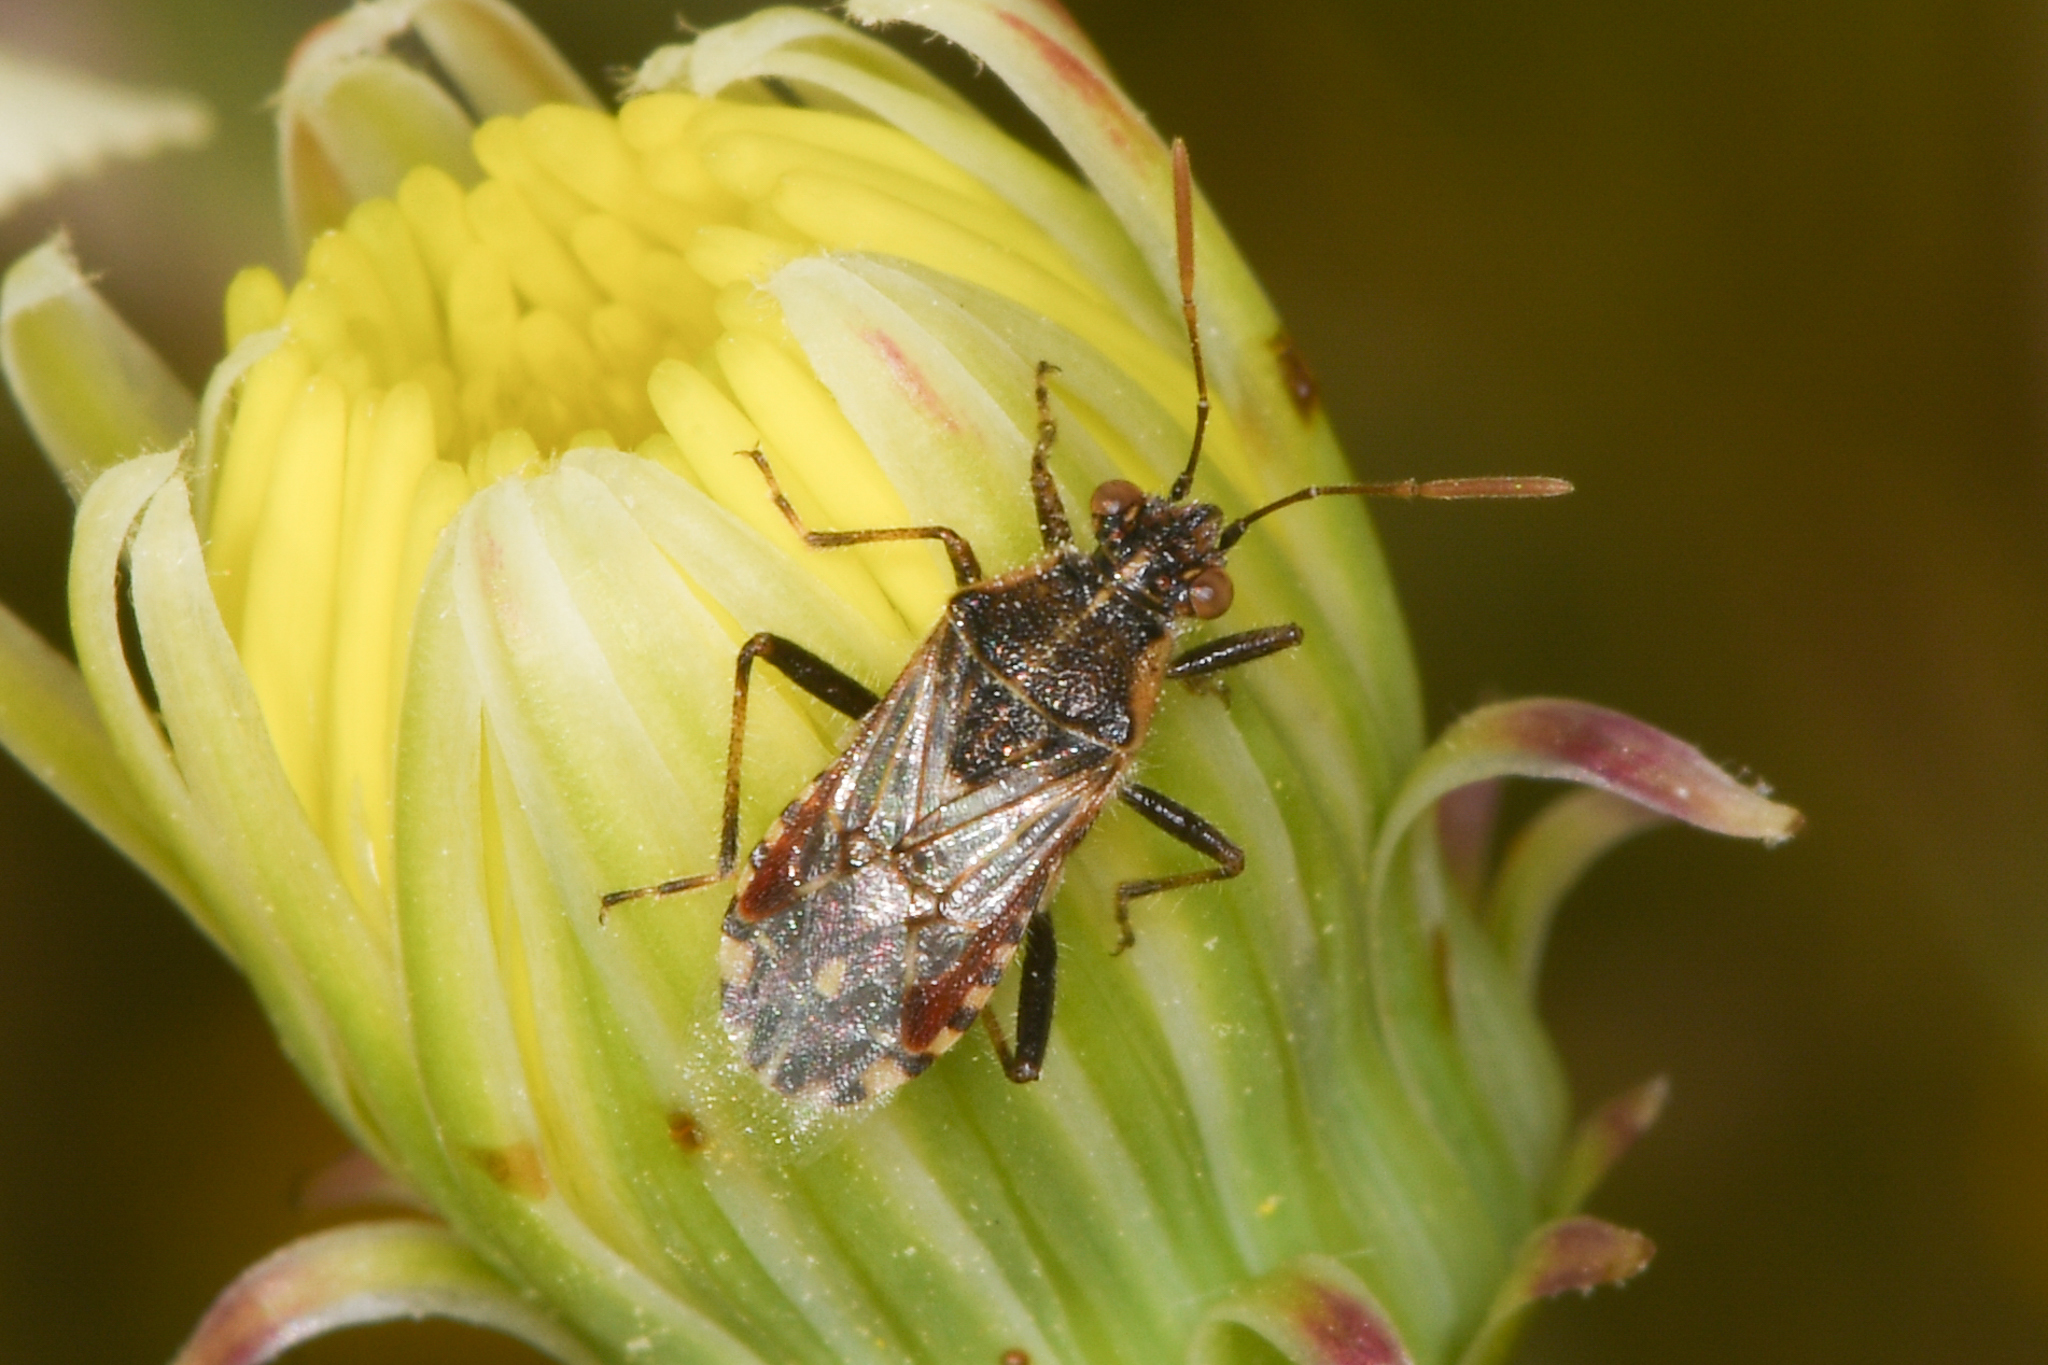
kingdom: Animalia
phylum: Arthropoda
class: Insecta
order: Hemiptera
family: Rhopalidae
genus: Liorhyssus
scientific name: Liorhyssus hyalinus
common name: Scentless plant bug
